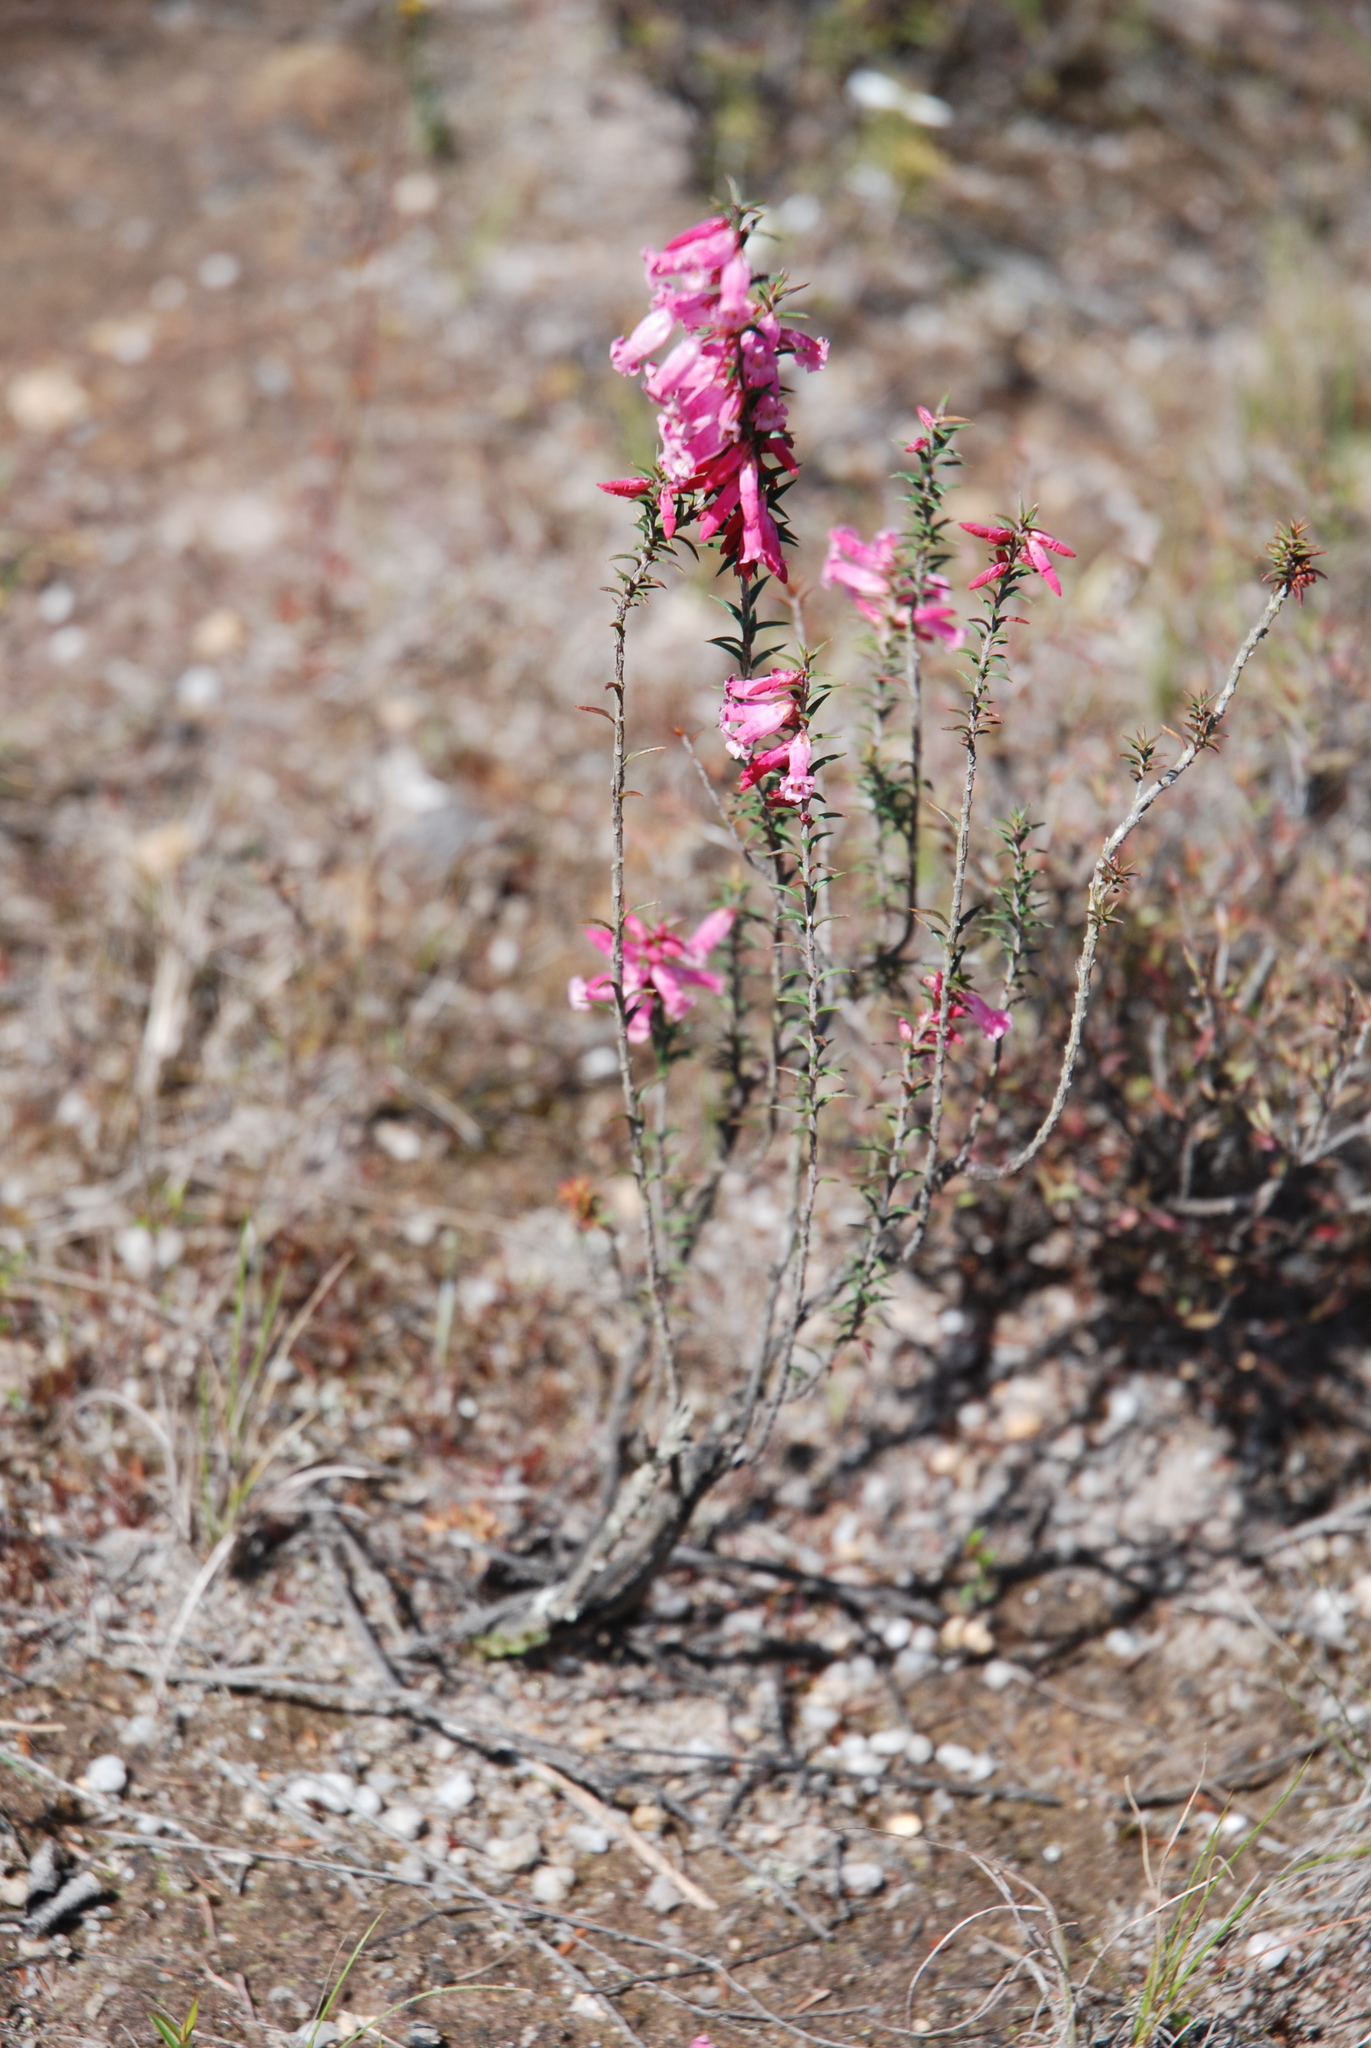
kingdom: Plantae
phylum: Tracheophyta
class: Magnoliopsida
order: Ericales
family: Ericaceae
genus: Epacris
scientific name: Epacris impressa
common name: Common-heath
